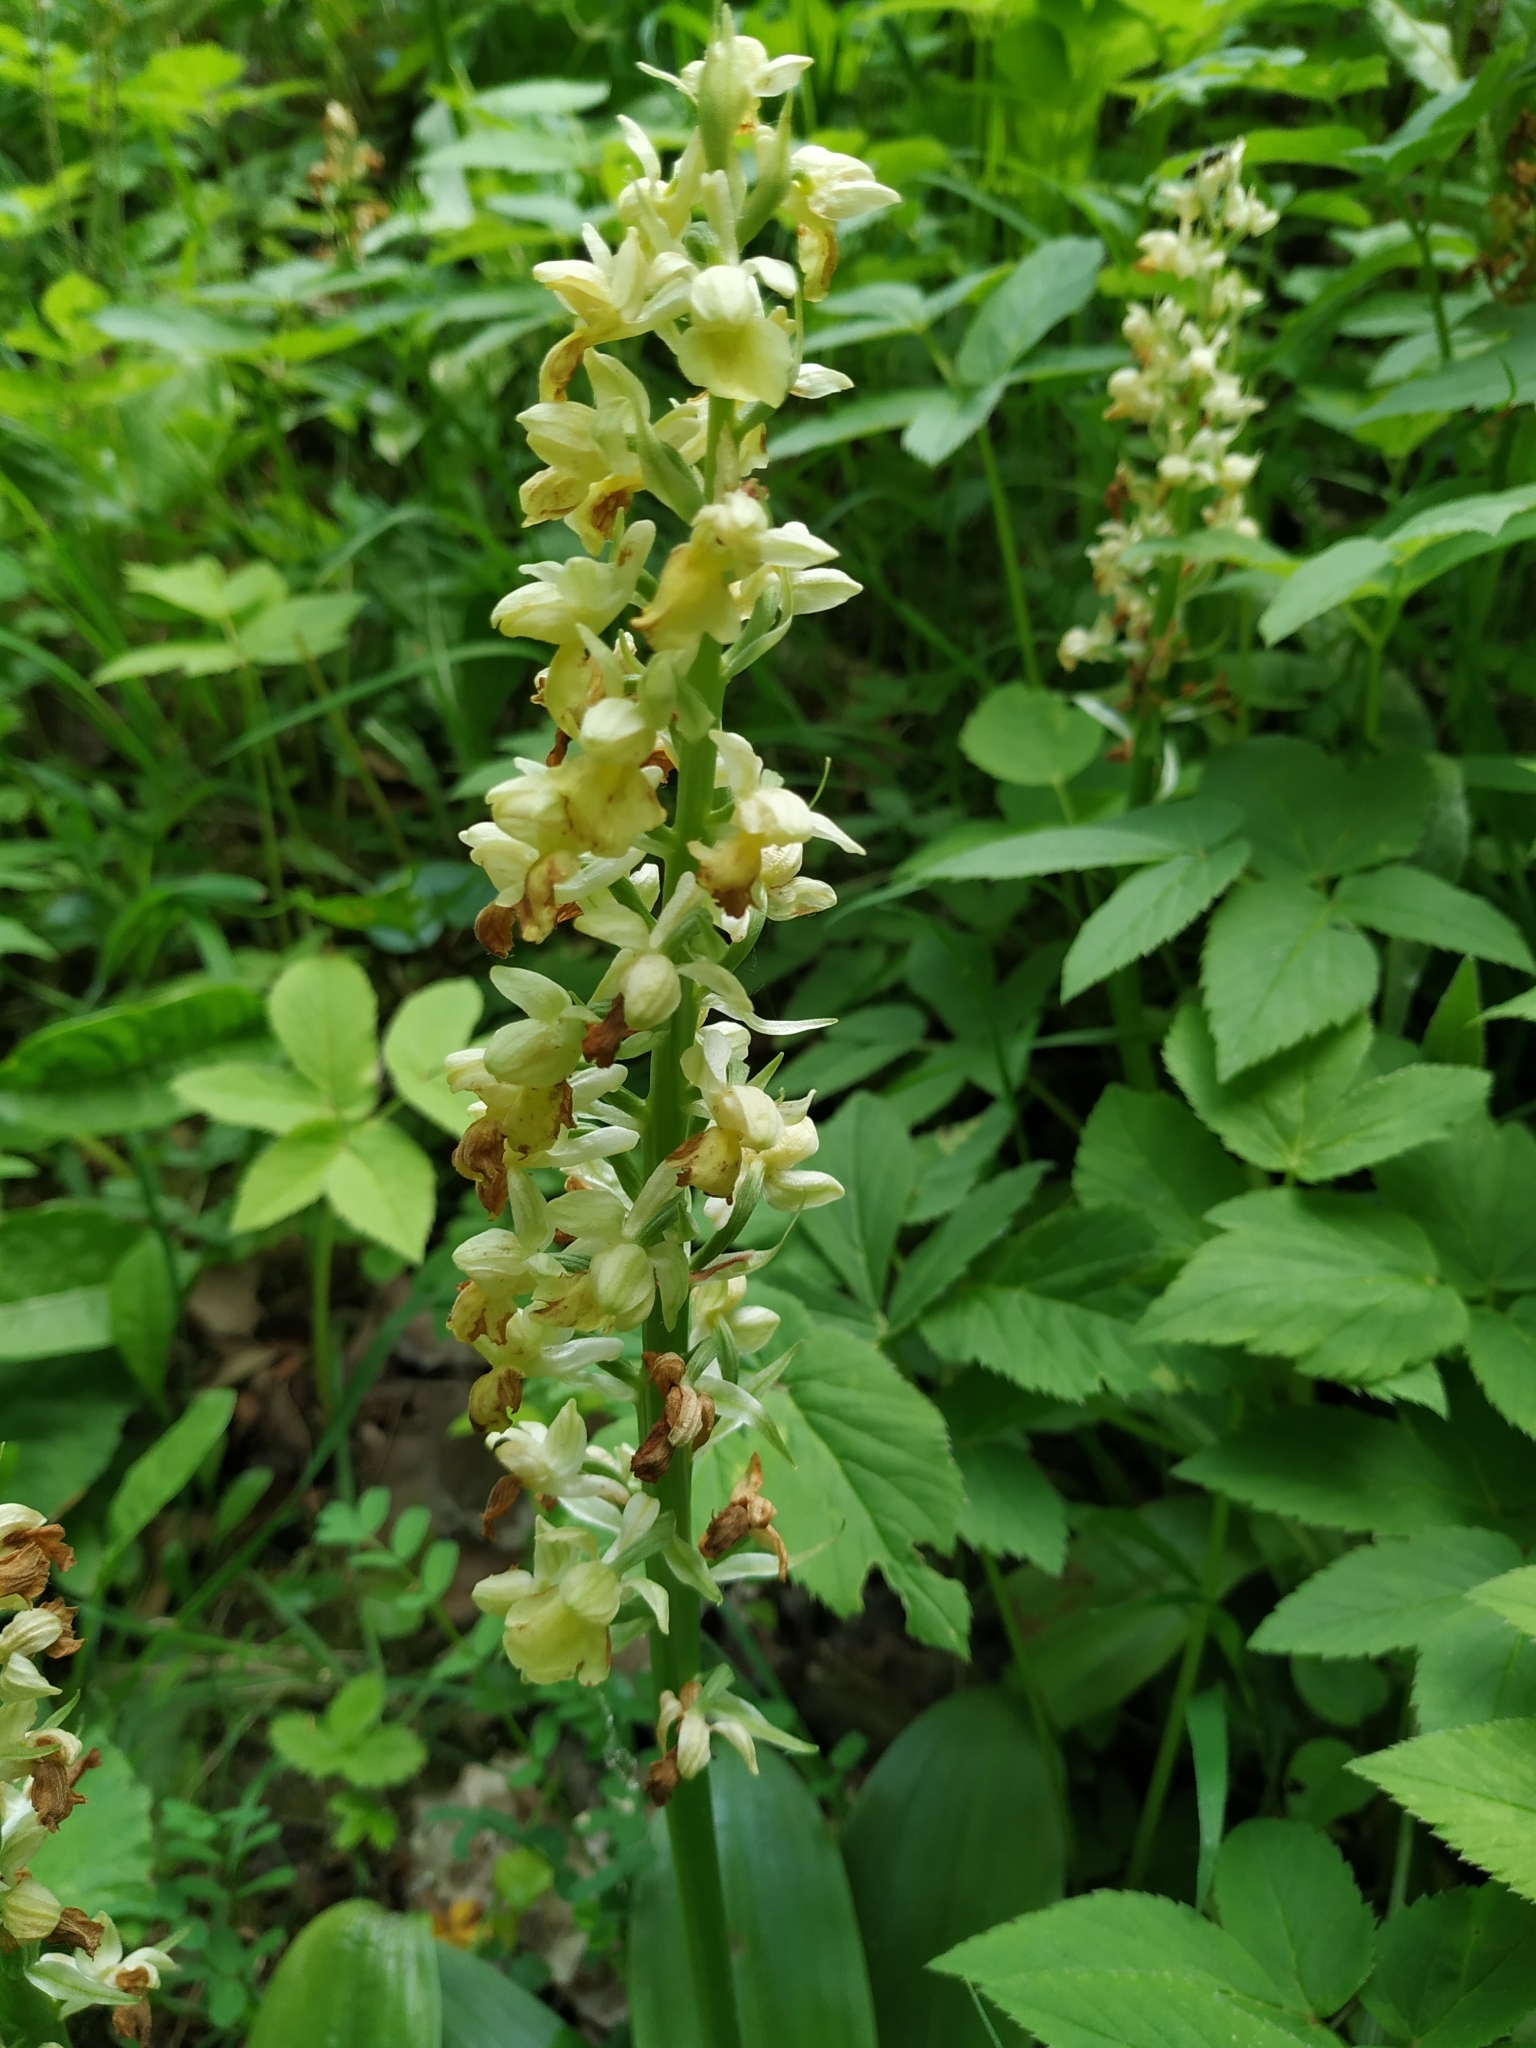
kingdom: Plantae
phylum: Tracheophyta
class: Liliopsida
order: Asparagales
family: Orchidaceae
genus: Orchis
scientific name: Orchis pallens
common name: Pale-flowered orchid
